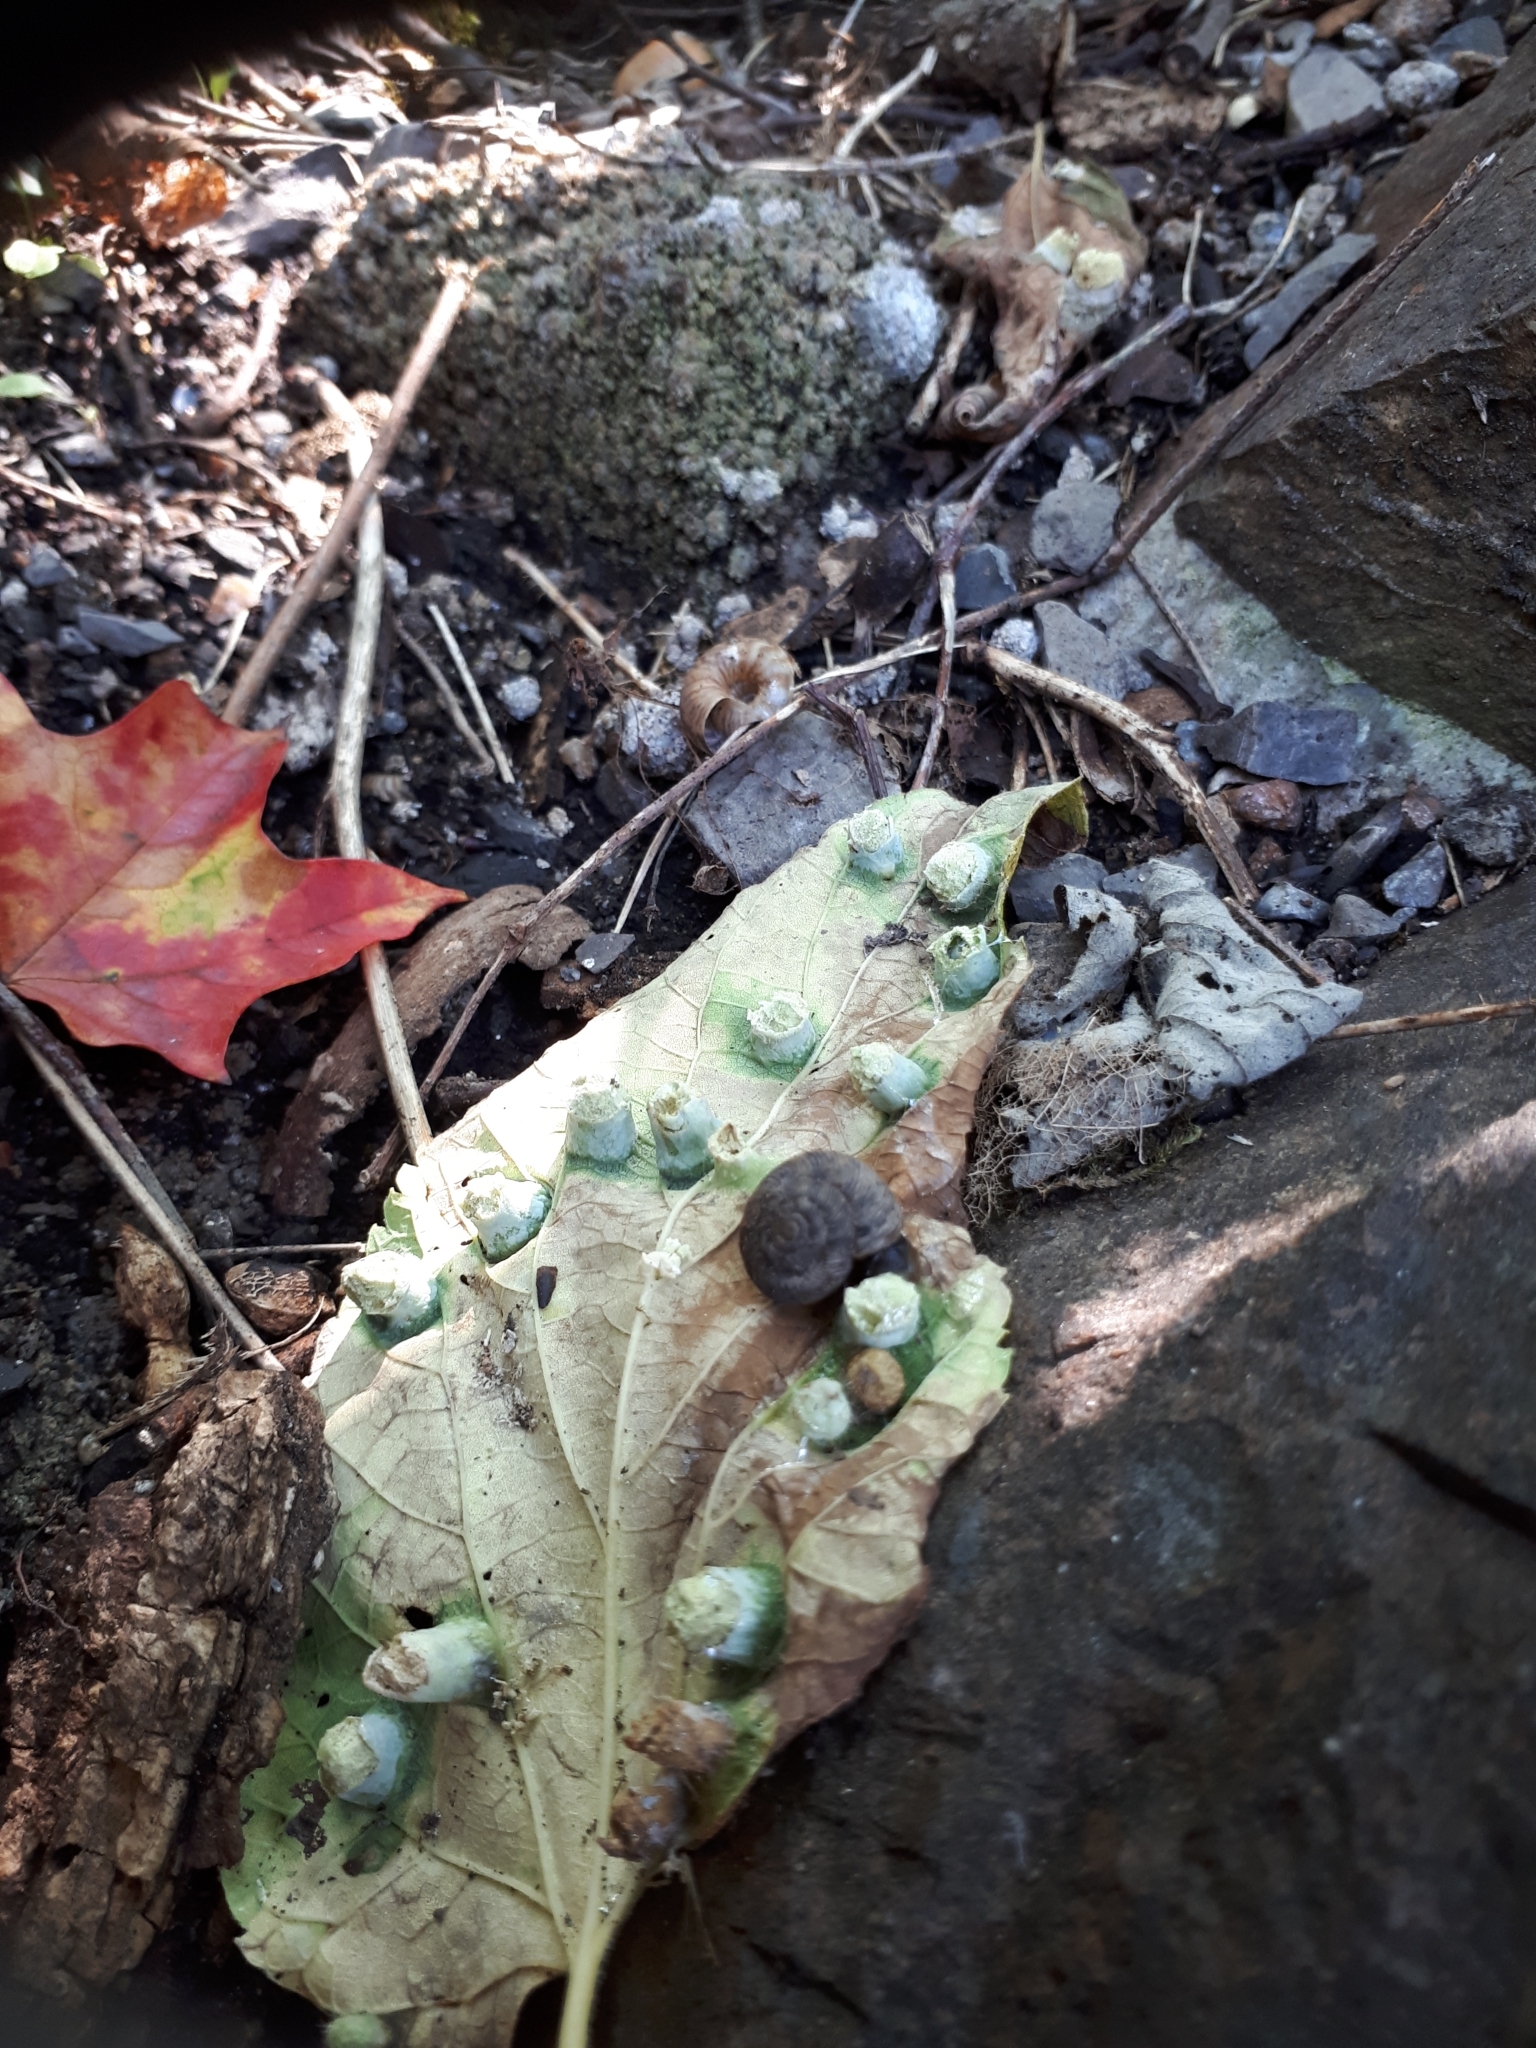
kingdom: Animalia
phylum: Arthropoda
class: Insecta
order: Hemiptera
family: Aphalaridae
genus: Pachypsylla
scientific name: Pachypsylla celtidismamma
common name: Hackberry nipplegall psyllid
